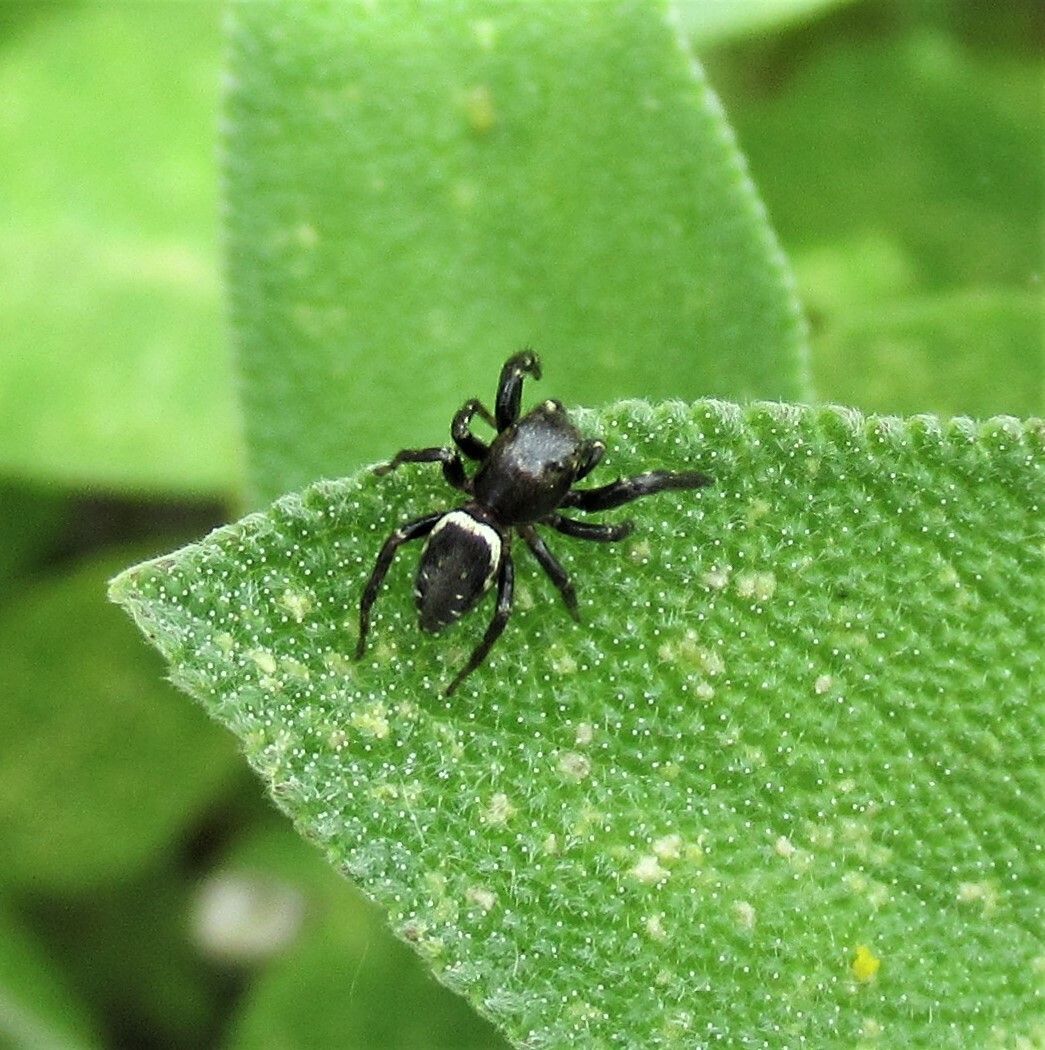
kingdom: Animalia
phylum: Arthropoda
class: Arachnida
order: Araneae
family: Salticidae
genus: Metaphidippus
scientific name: Metaphidippus manni
